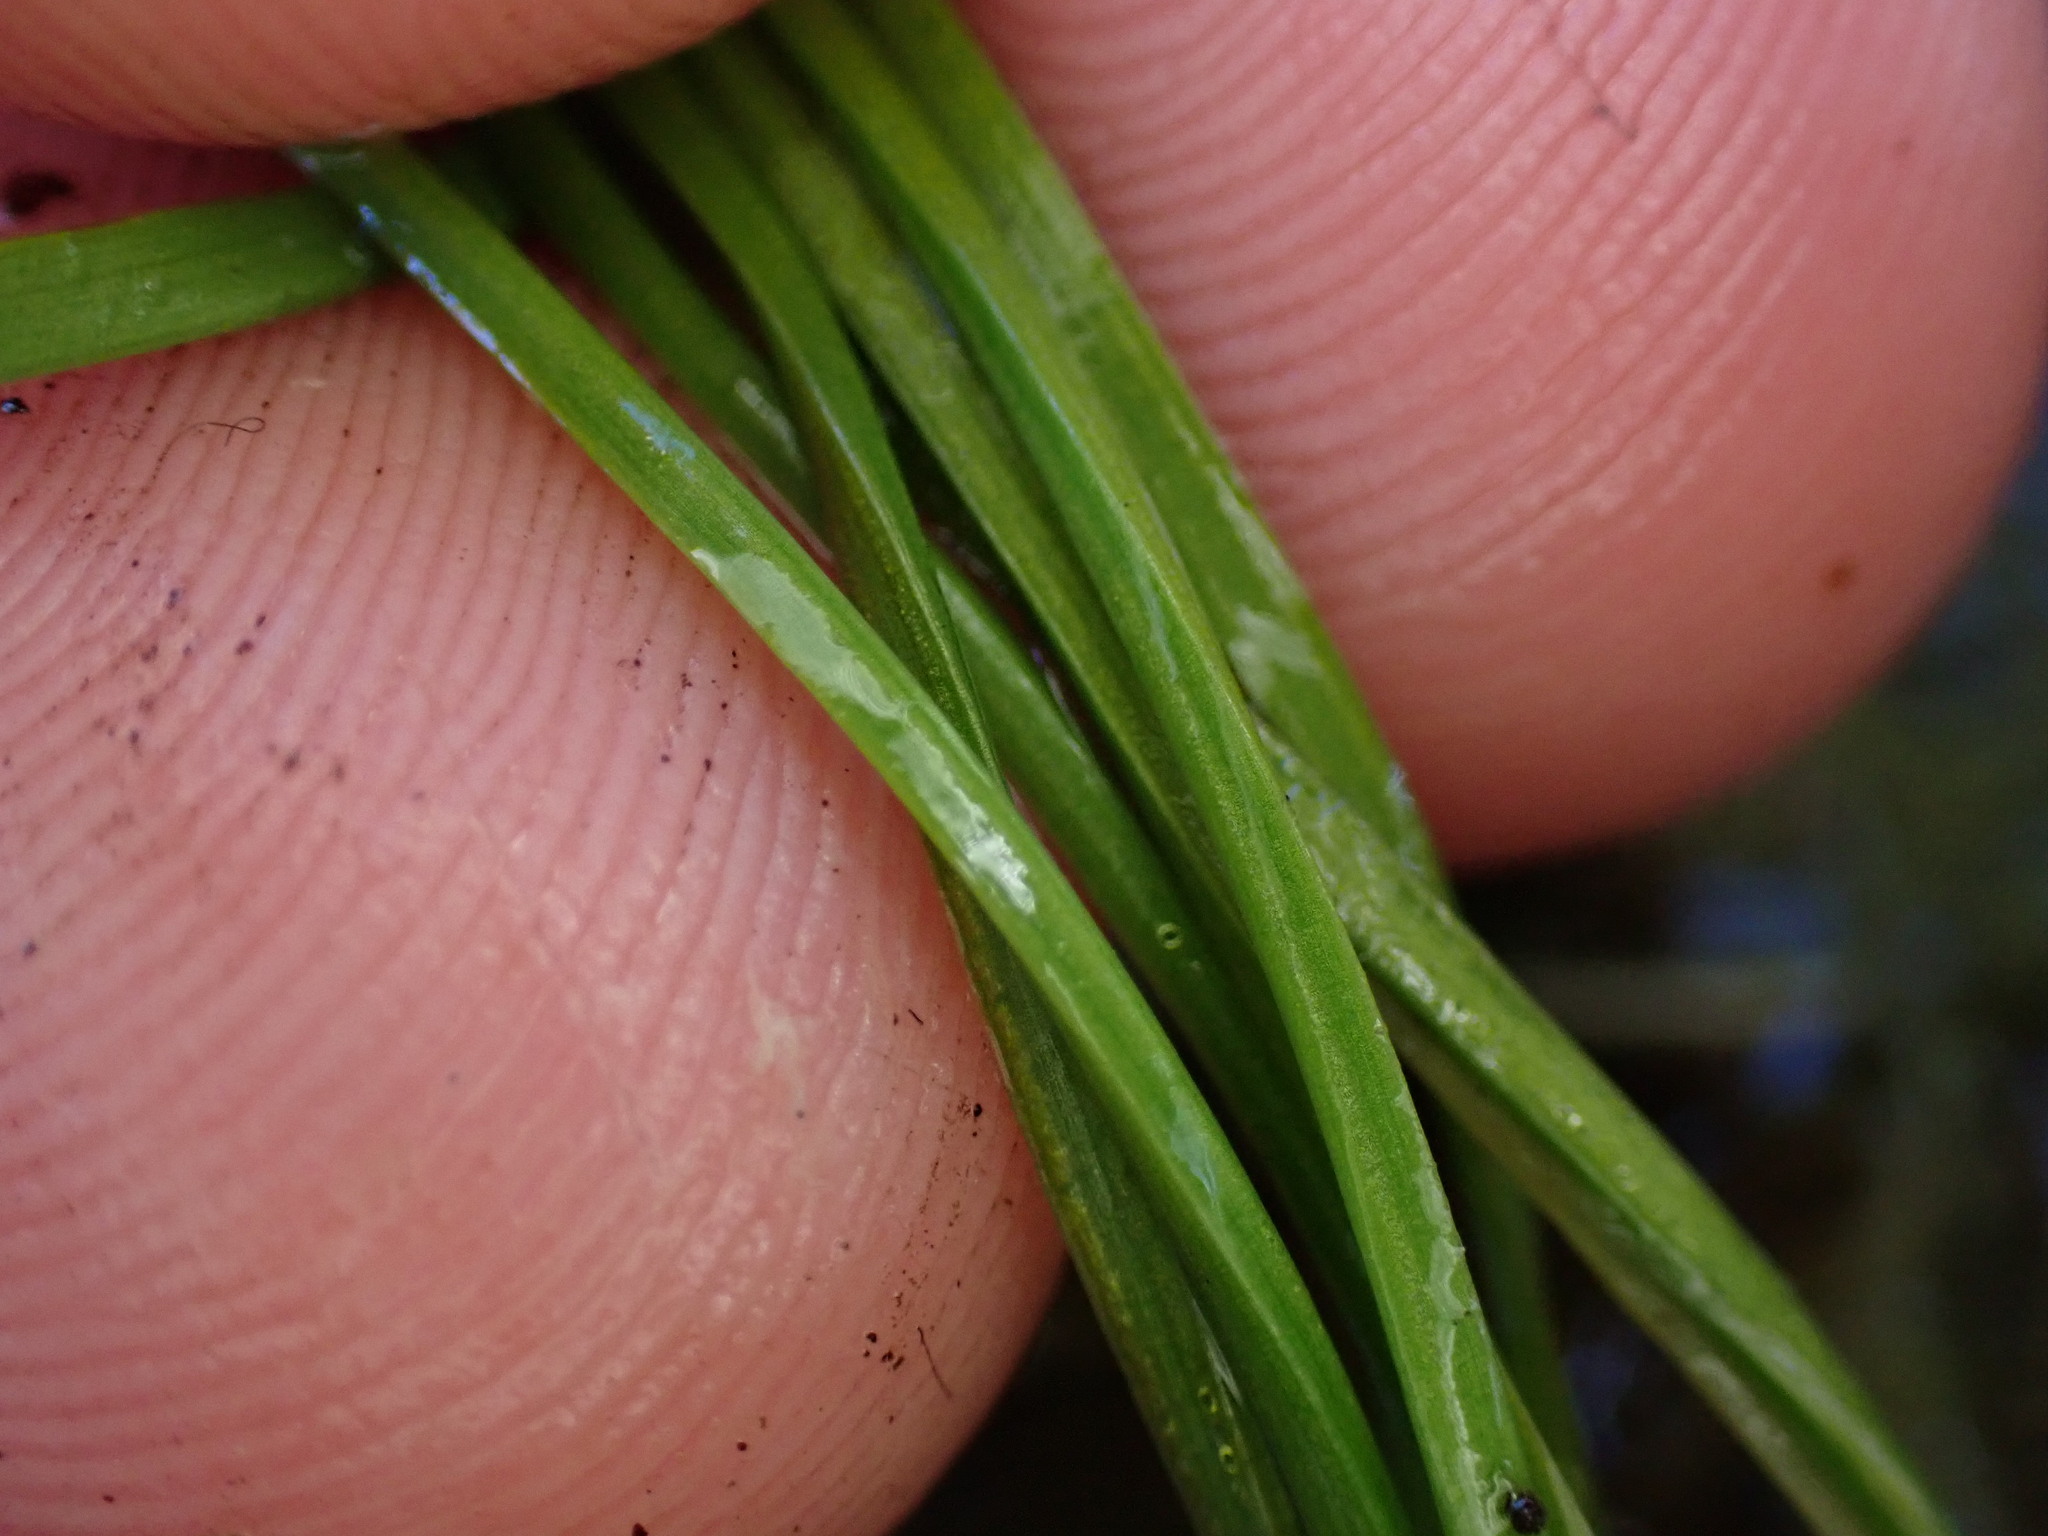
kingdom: Plantae
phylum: Tracheophyta
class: Lycopodiopsida
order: Isoetales
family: Isoetaceae
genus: Isoetes
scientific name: Isoetes nuttallii
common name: Nuttall's quillwort
